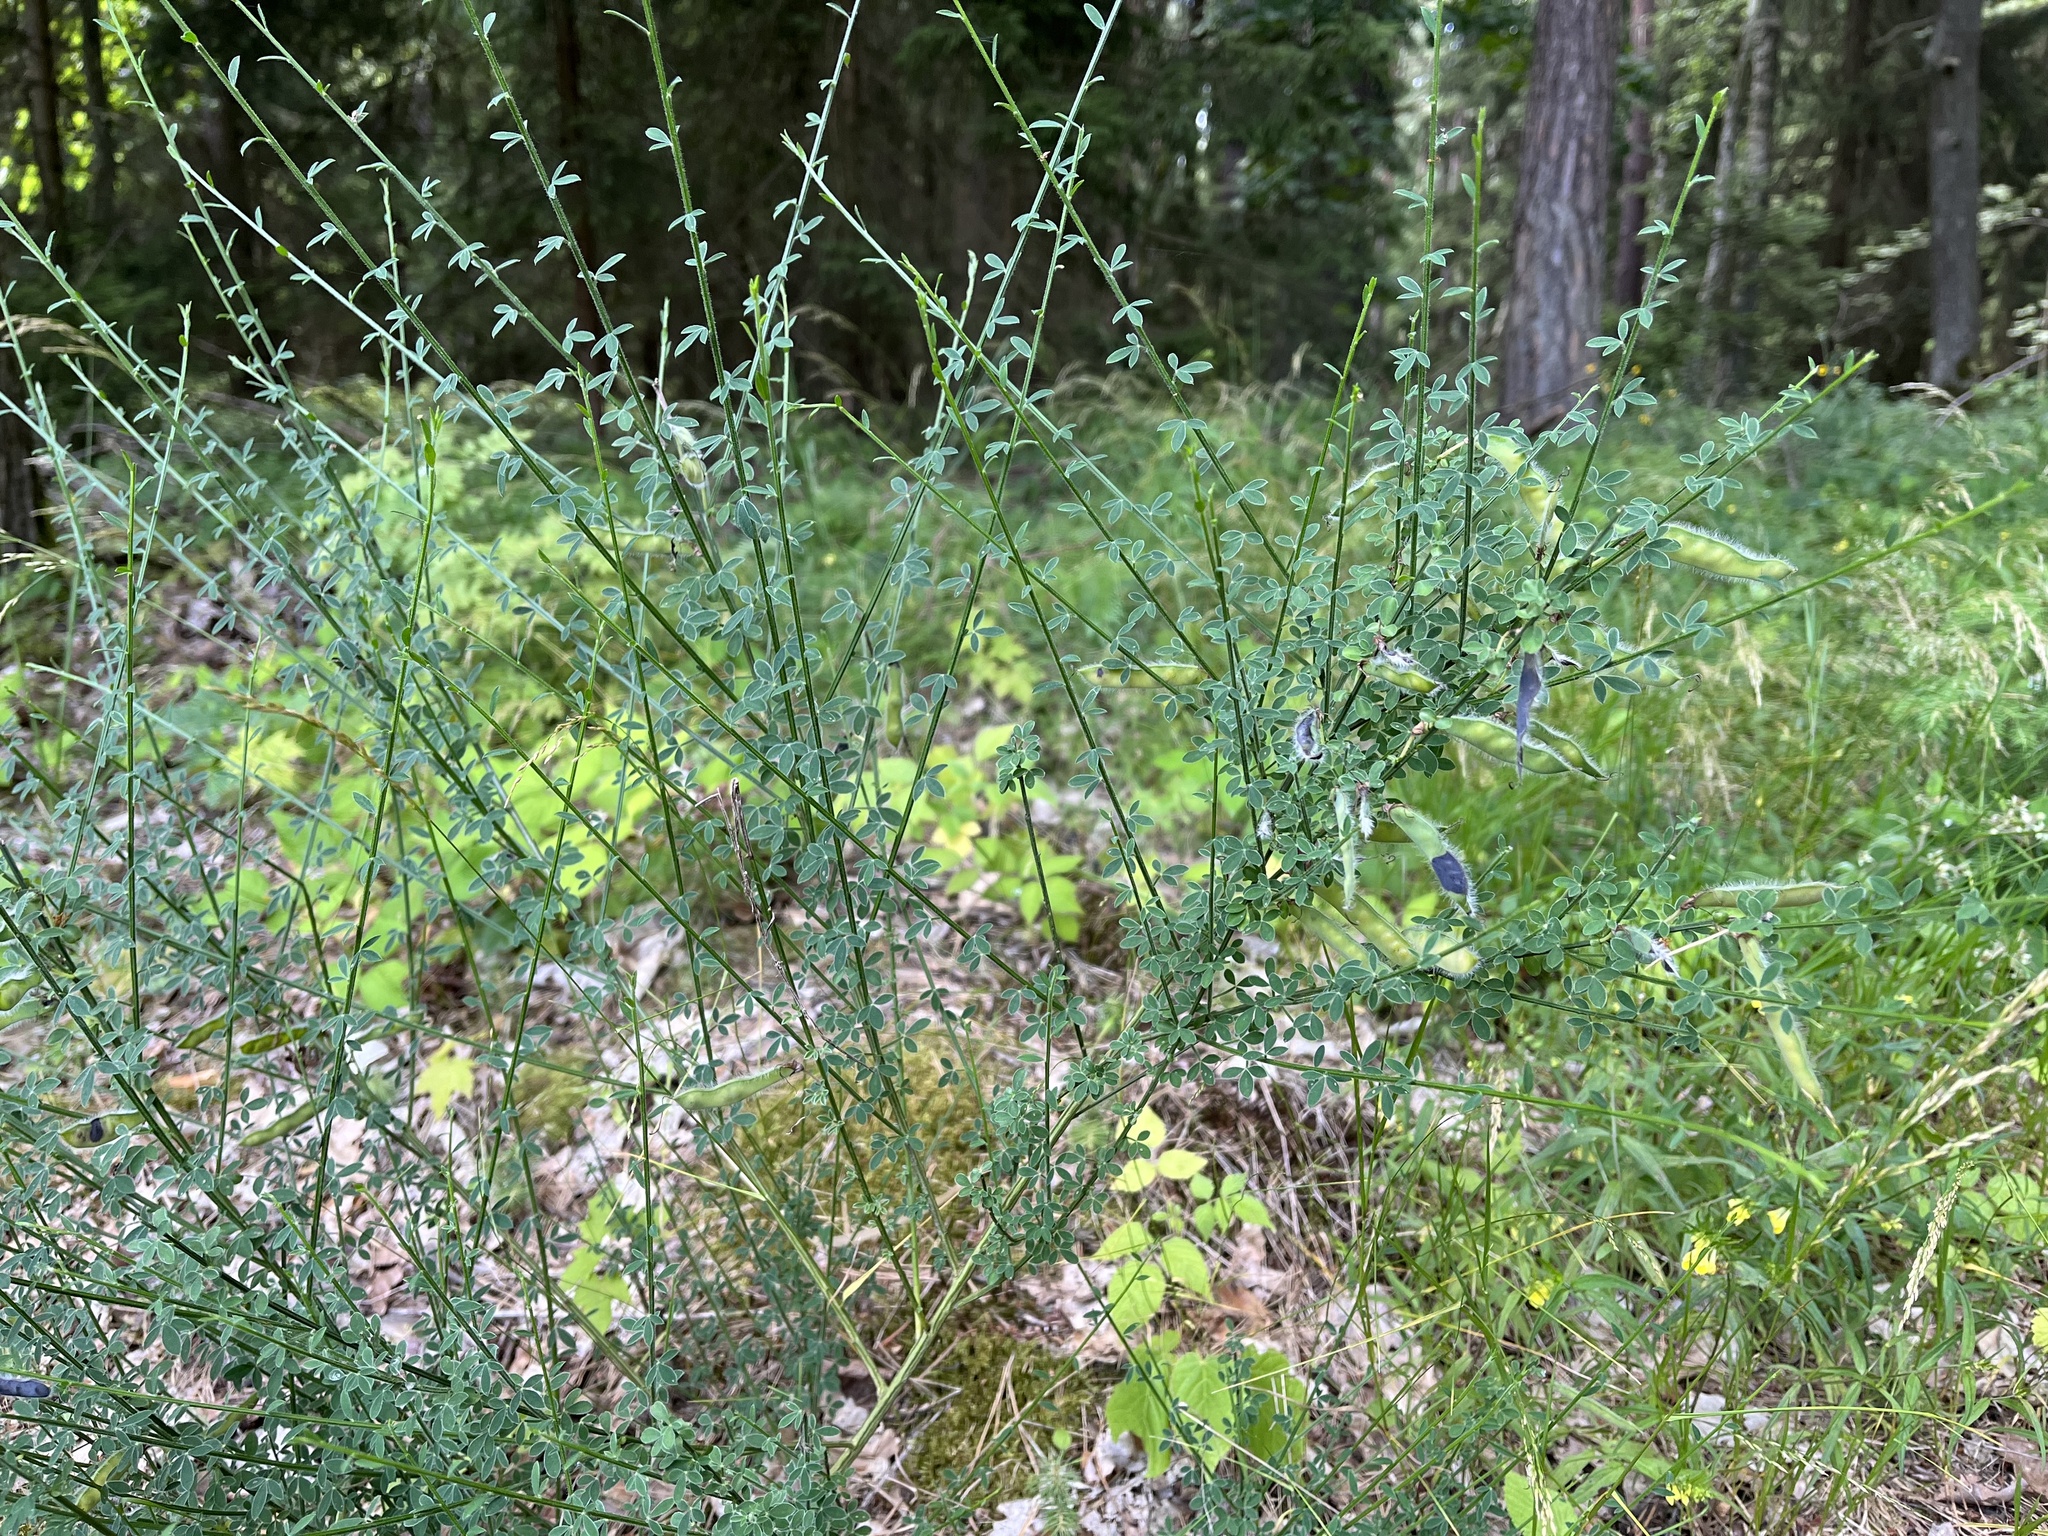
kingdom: Plantae
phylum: Tracheophyta
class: Magnoliopsida
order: Fabales
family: Fabaceae
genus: Cytisus
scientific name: Cytisus scoparius
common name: Scotch broom
